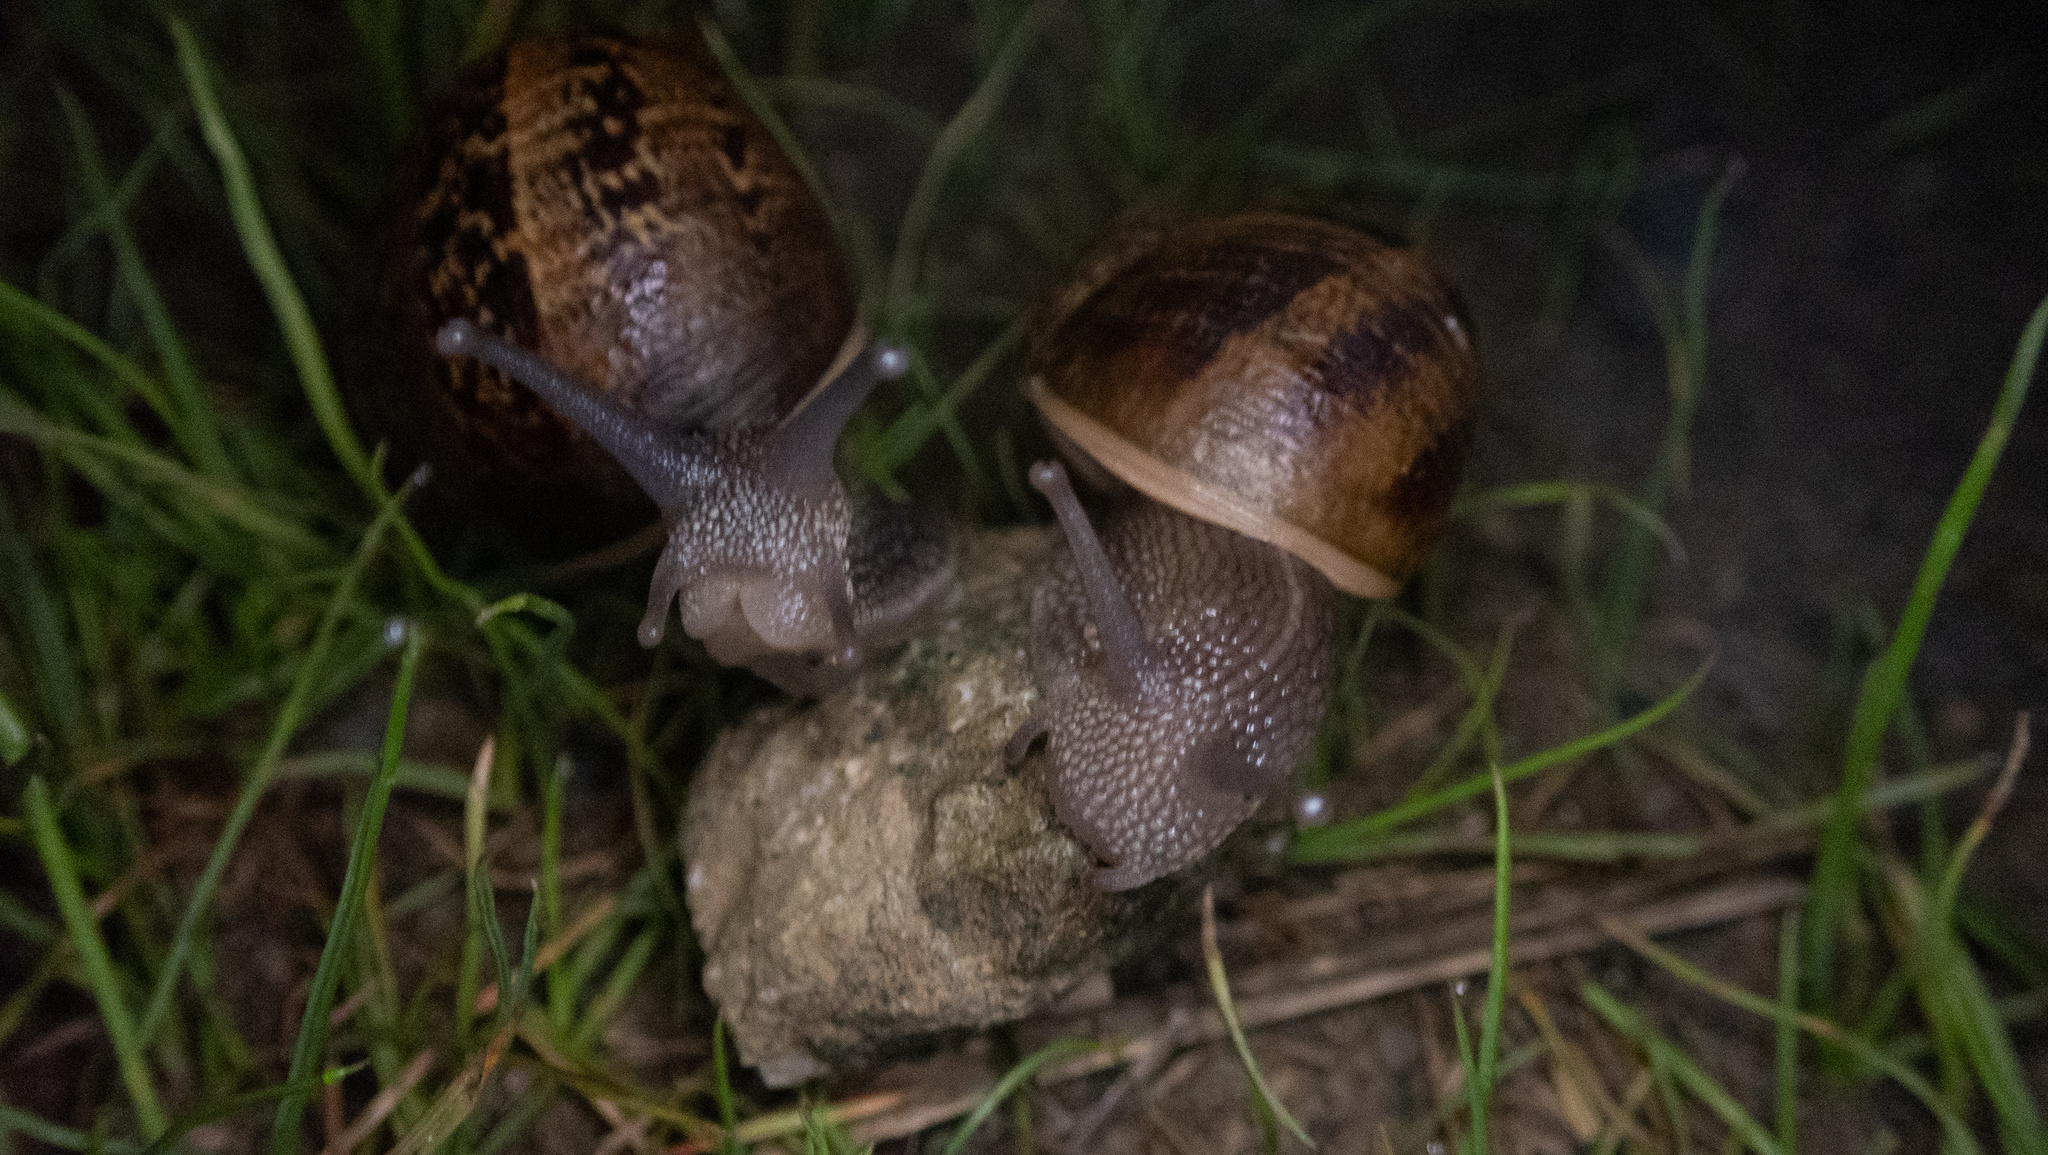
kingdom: Animalia
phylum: Mollusca
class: Gastropoda
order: Stylommatophora
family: Helicidae
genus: Cornu
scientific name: Cornu aspersum
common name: Brown garden snail
